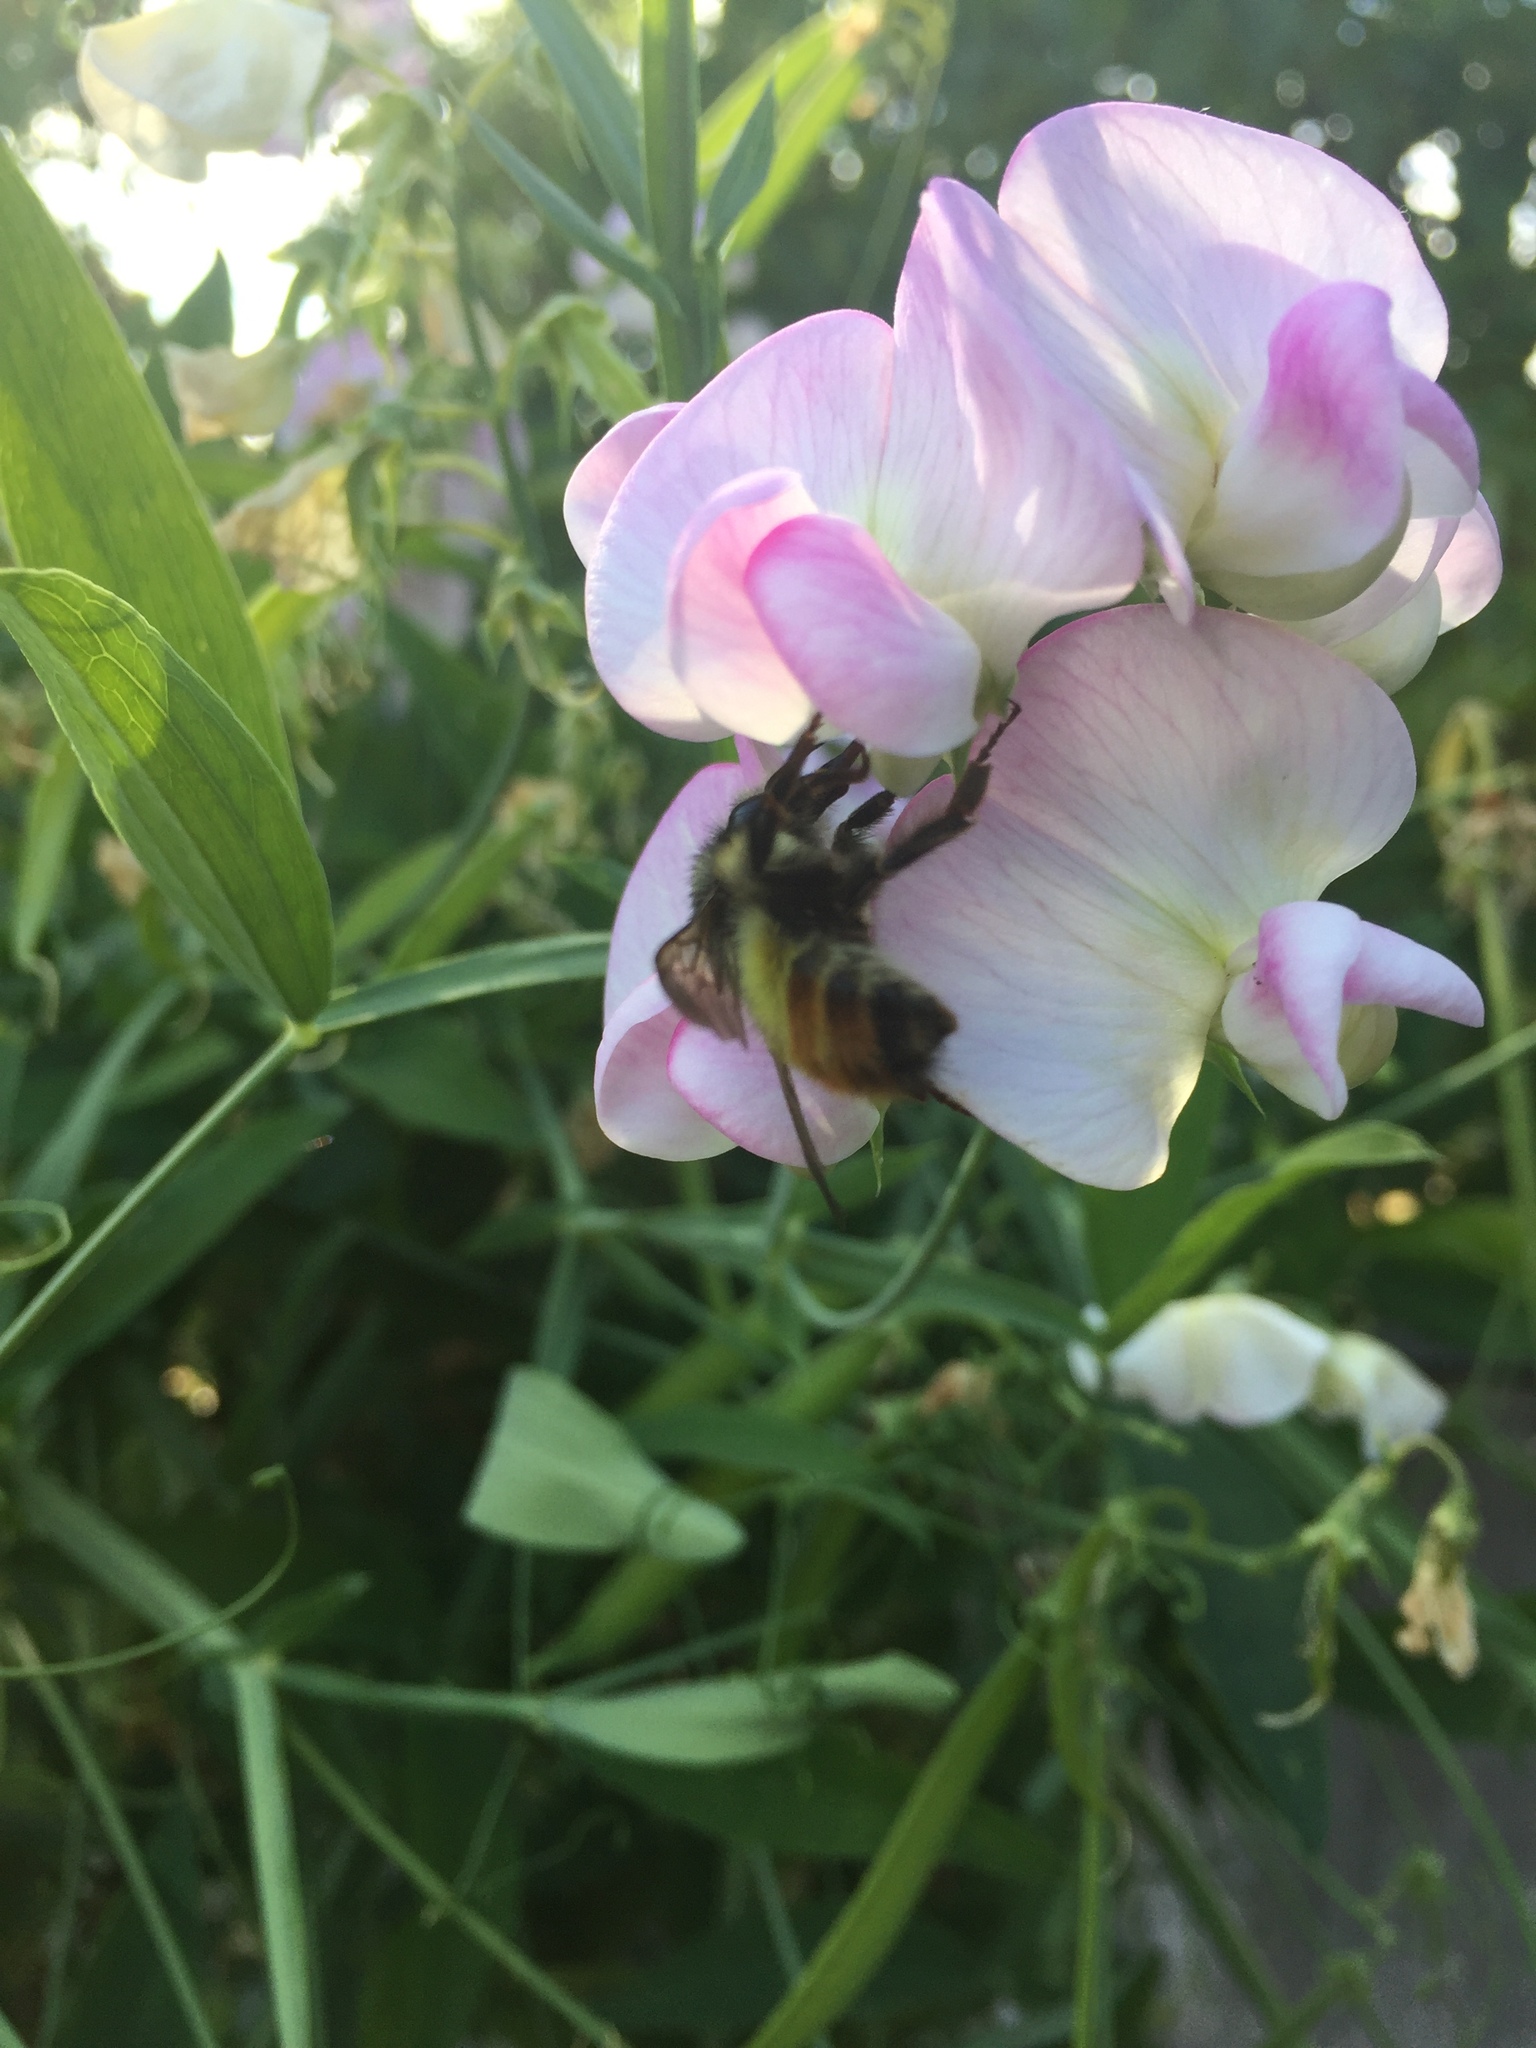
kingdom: Animalia
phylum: Arthropoda
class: Insecta
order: Hymenoptera
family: Apidae
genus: Bombus
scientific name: Bombus flavifrons
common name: Yellow head bumble bee
